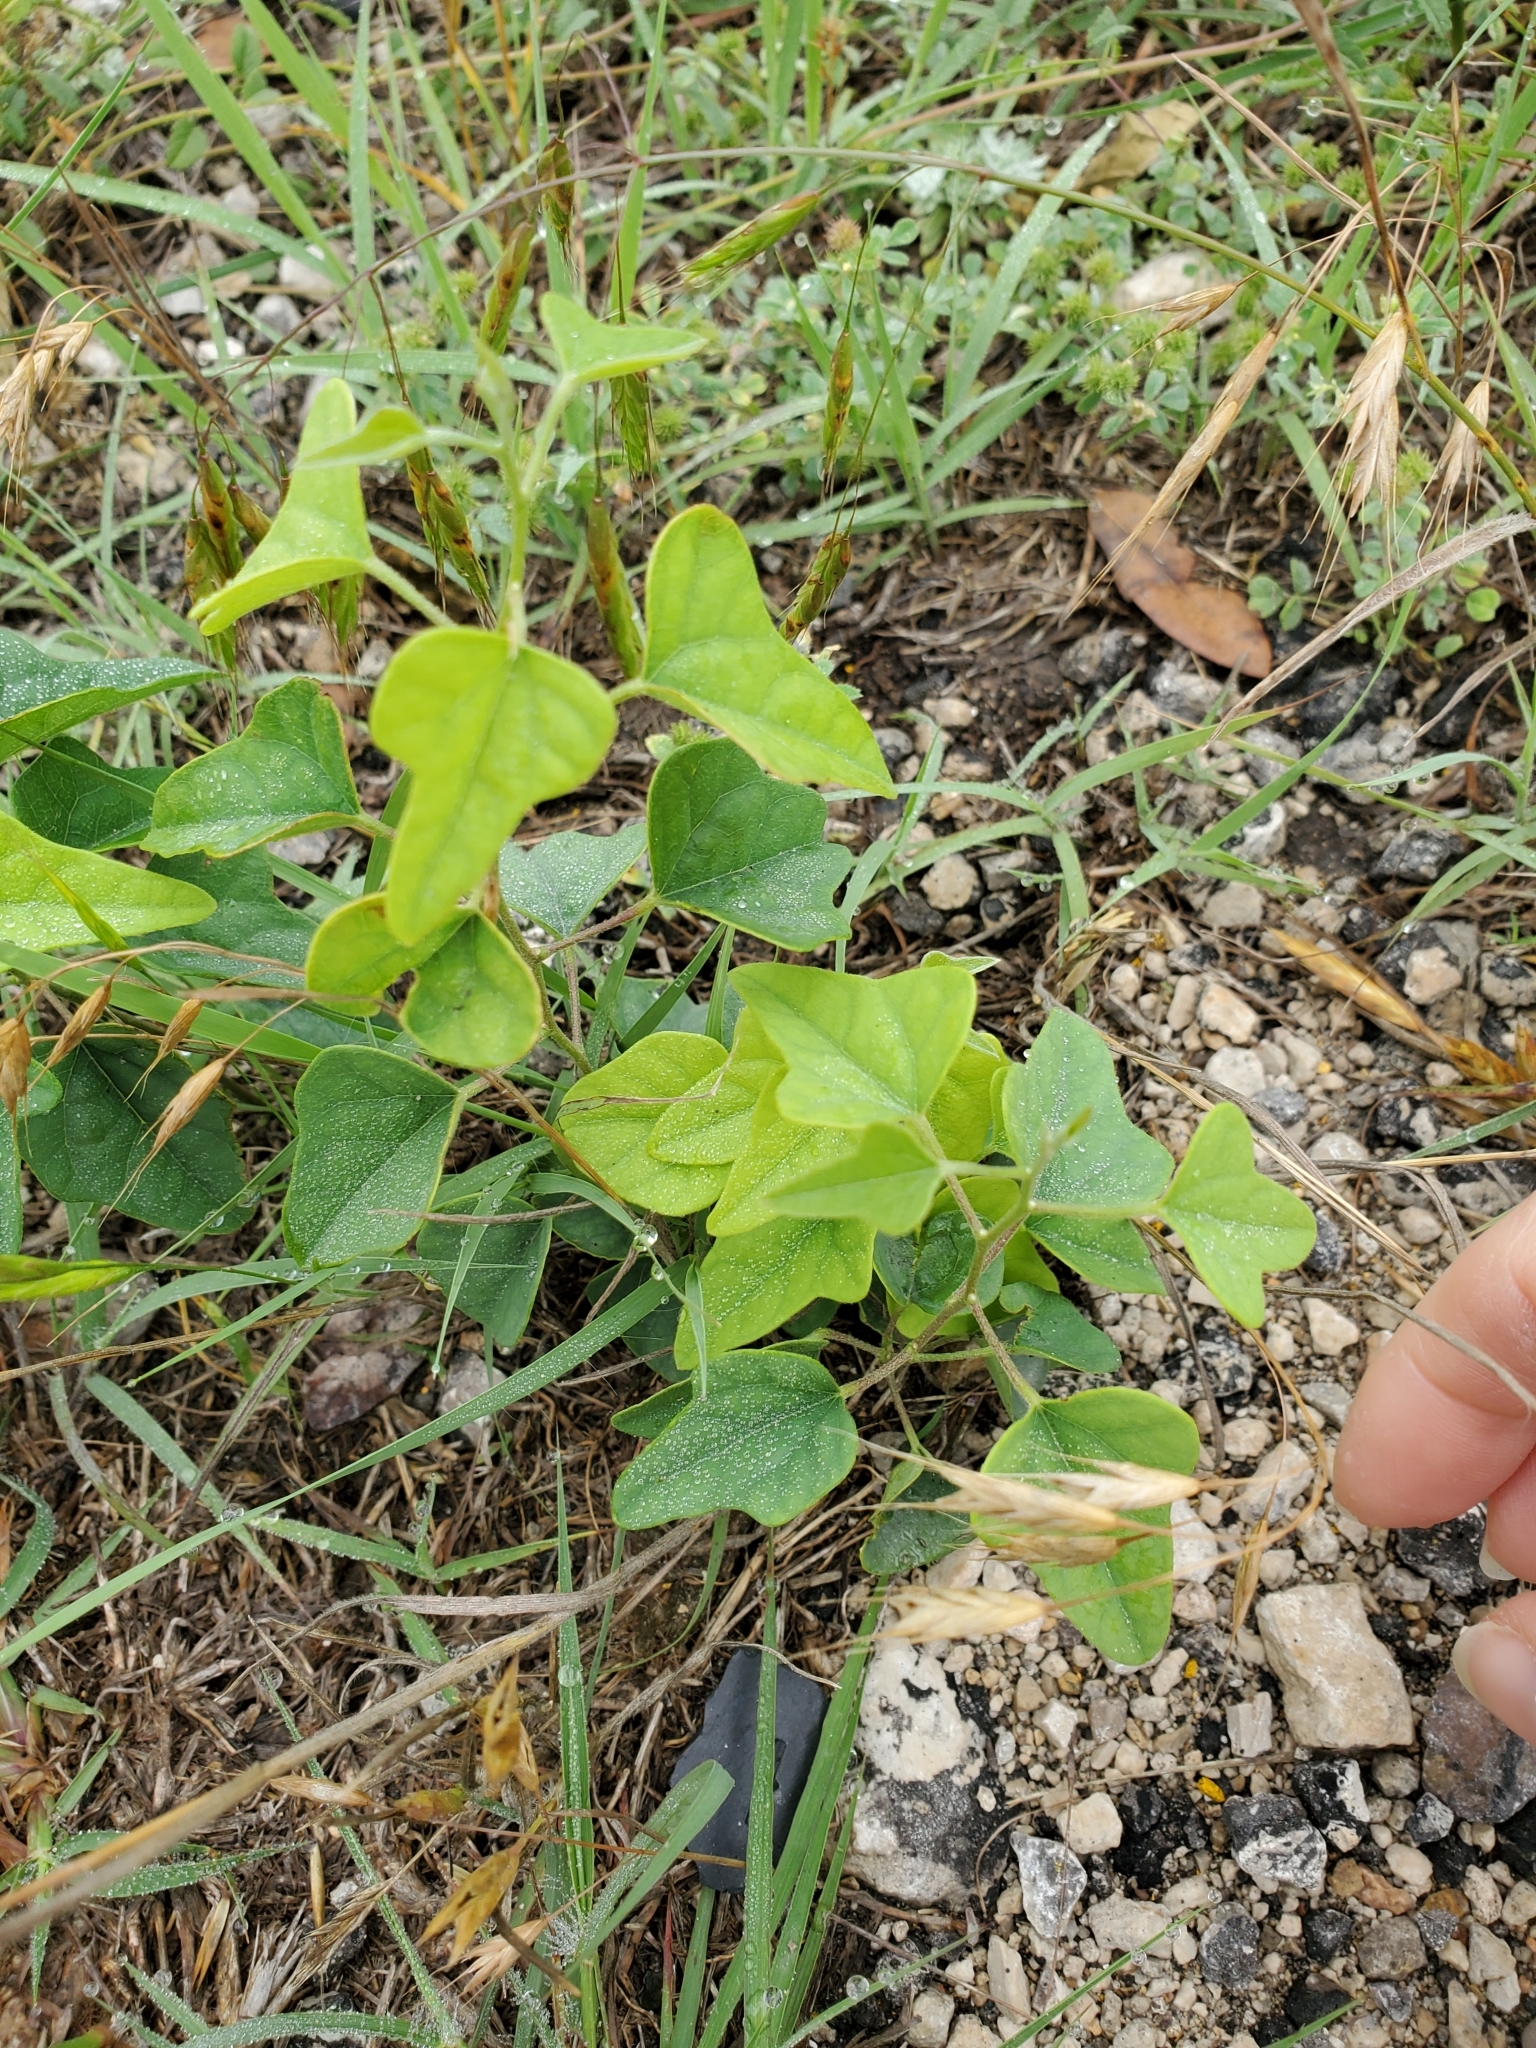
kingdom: Plantae
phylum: Tracheophyta
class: Magnoliopsida
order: Ranunculales
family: Menispermaceae
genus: Cocculus
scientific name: Cocculus carolinus
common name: Carolina moonseed
